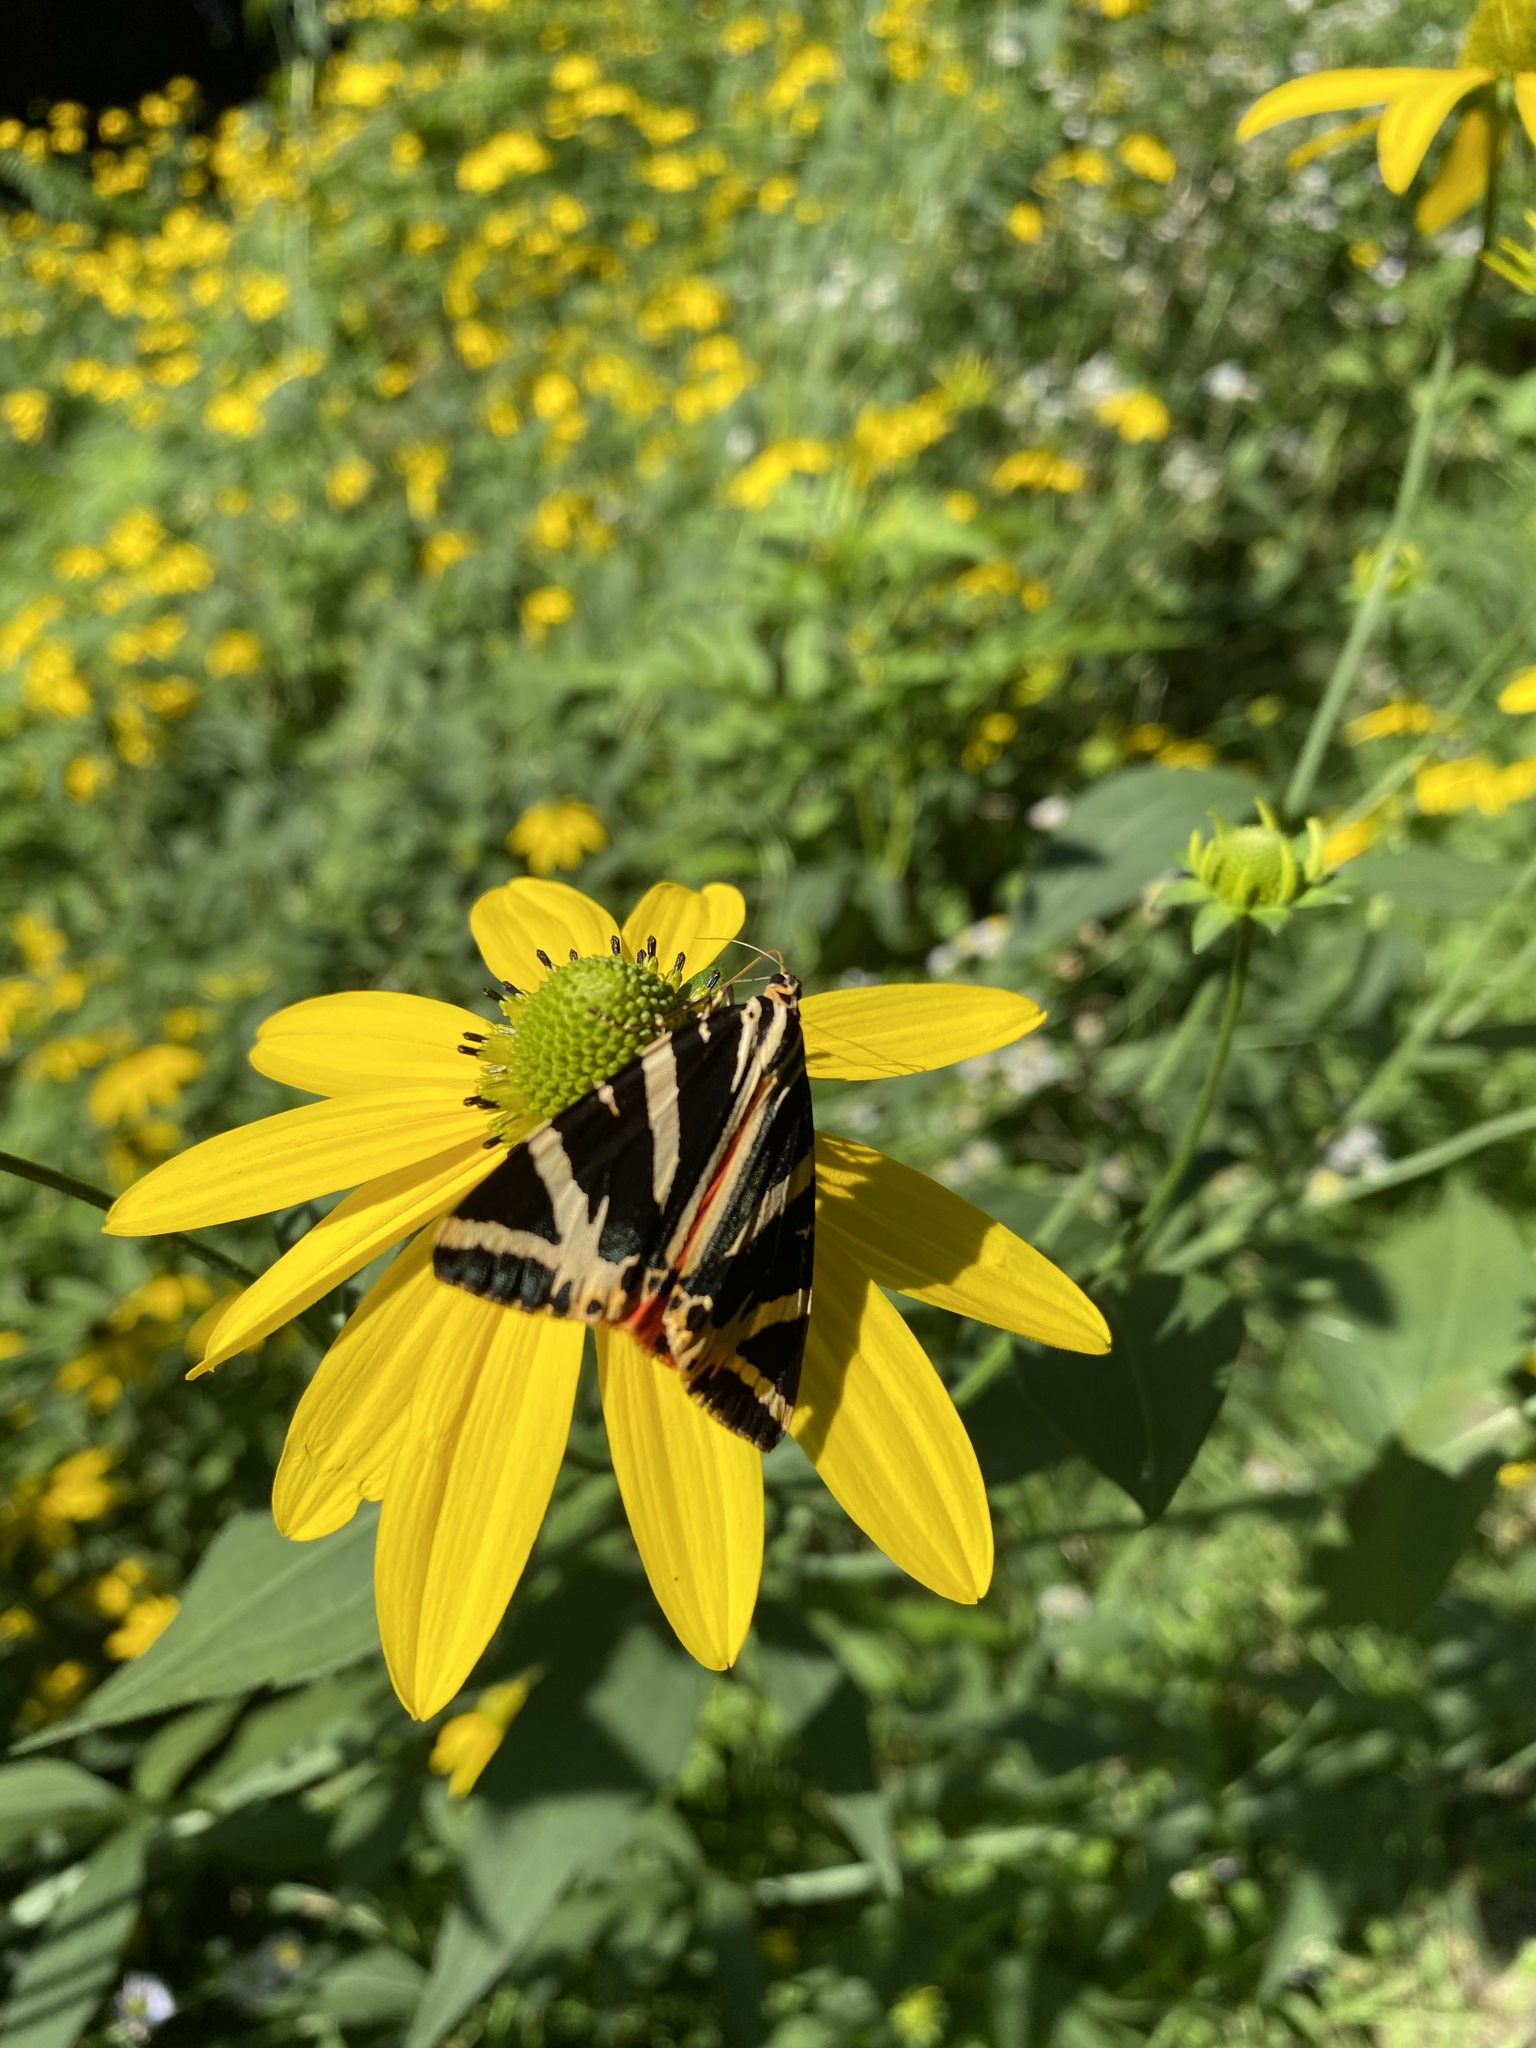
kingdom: Animalia
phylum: Arthropoda
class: Insecta
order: Lepidoptera
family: Erebidae
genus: Euplagia
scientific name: Euplagia quadripunctaria
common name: Jersey tiger
